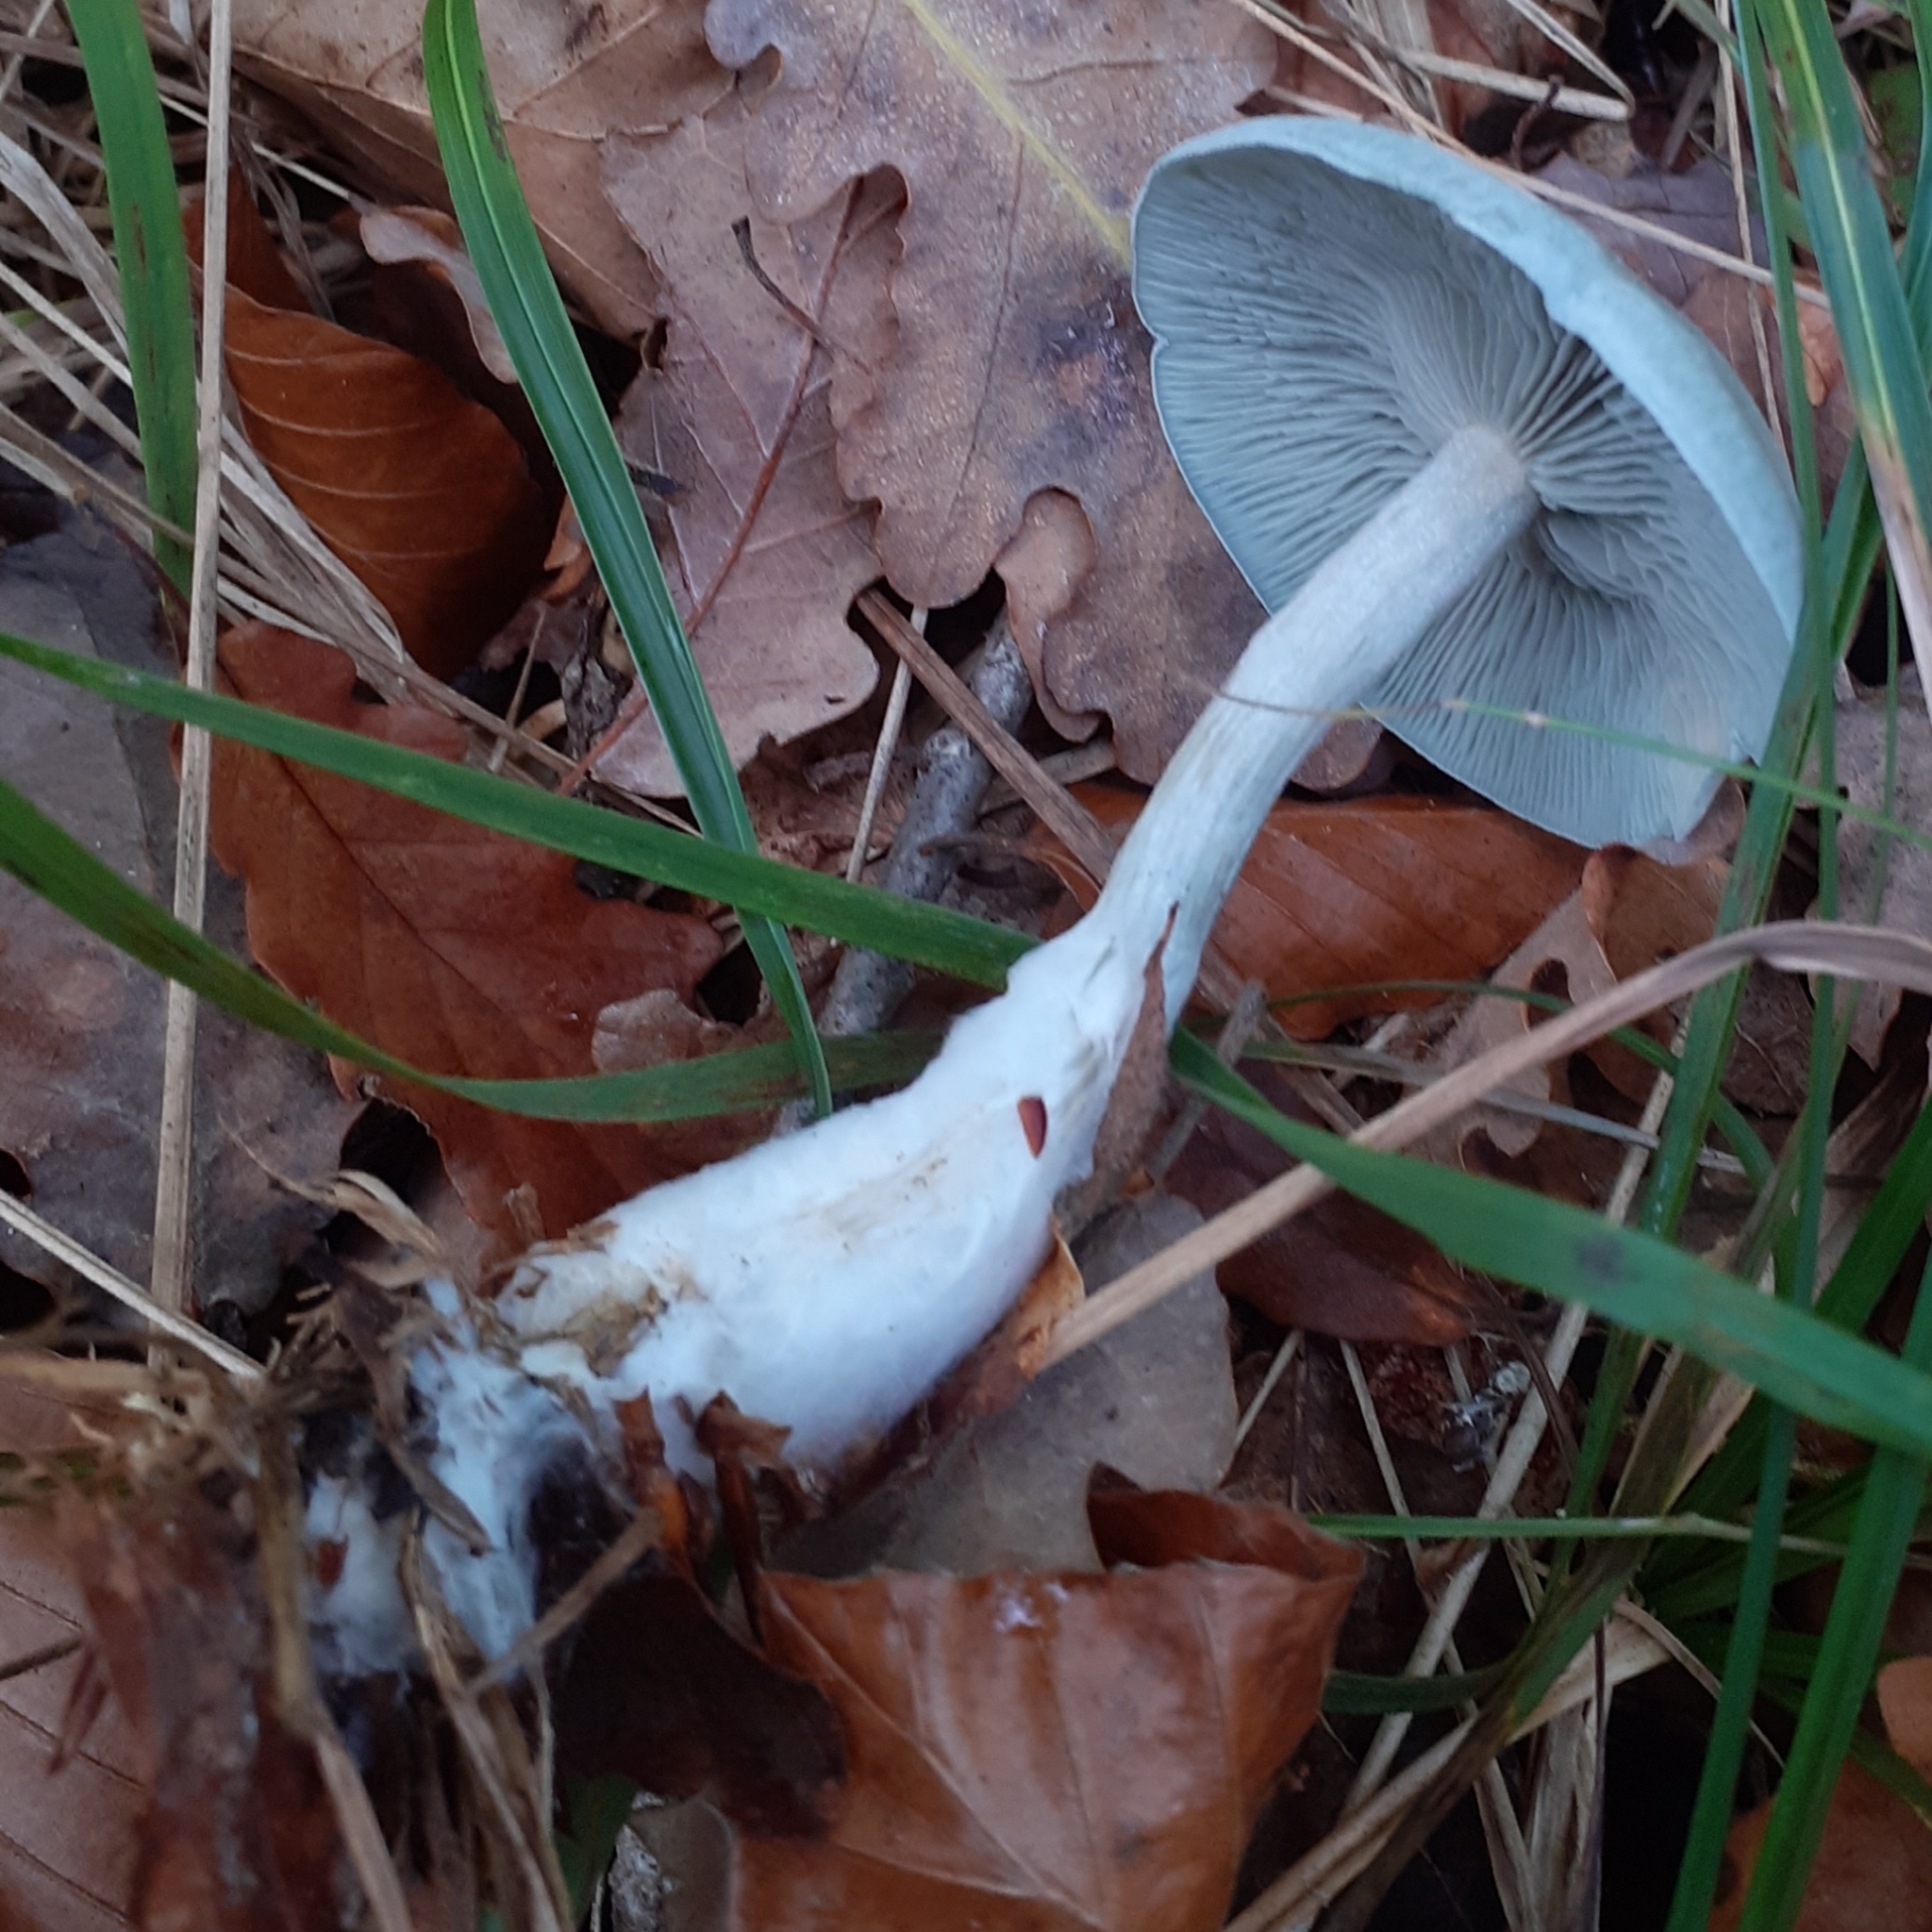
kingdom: Fungi
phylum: Basidiomycota
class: Agaricomycetes
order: Agaricales
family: Tricholomataceae
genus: Collybia
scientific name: Collybia
